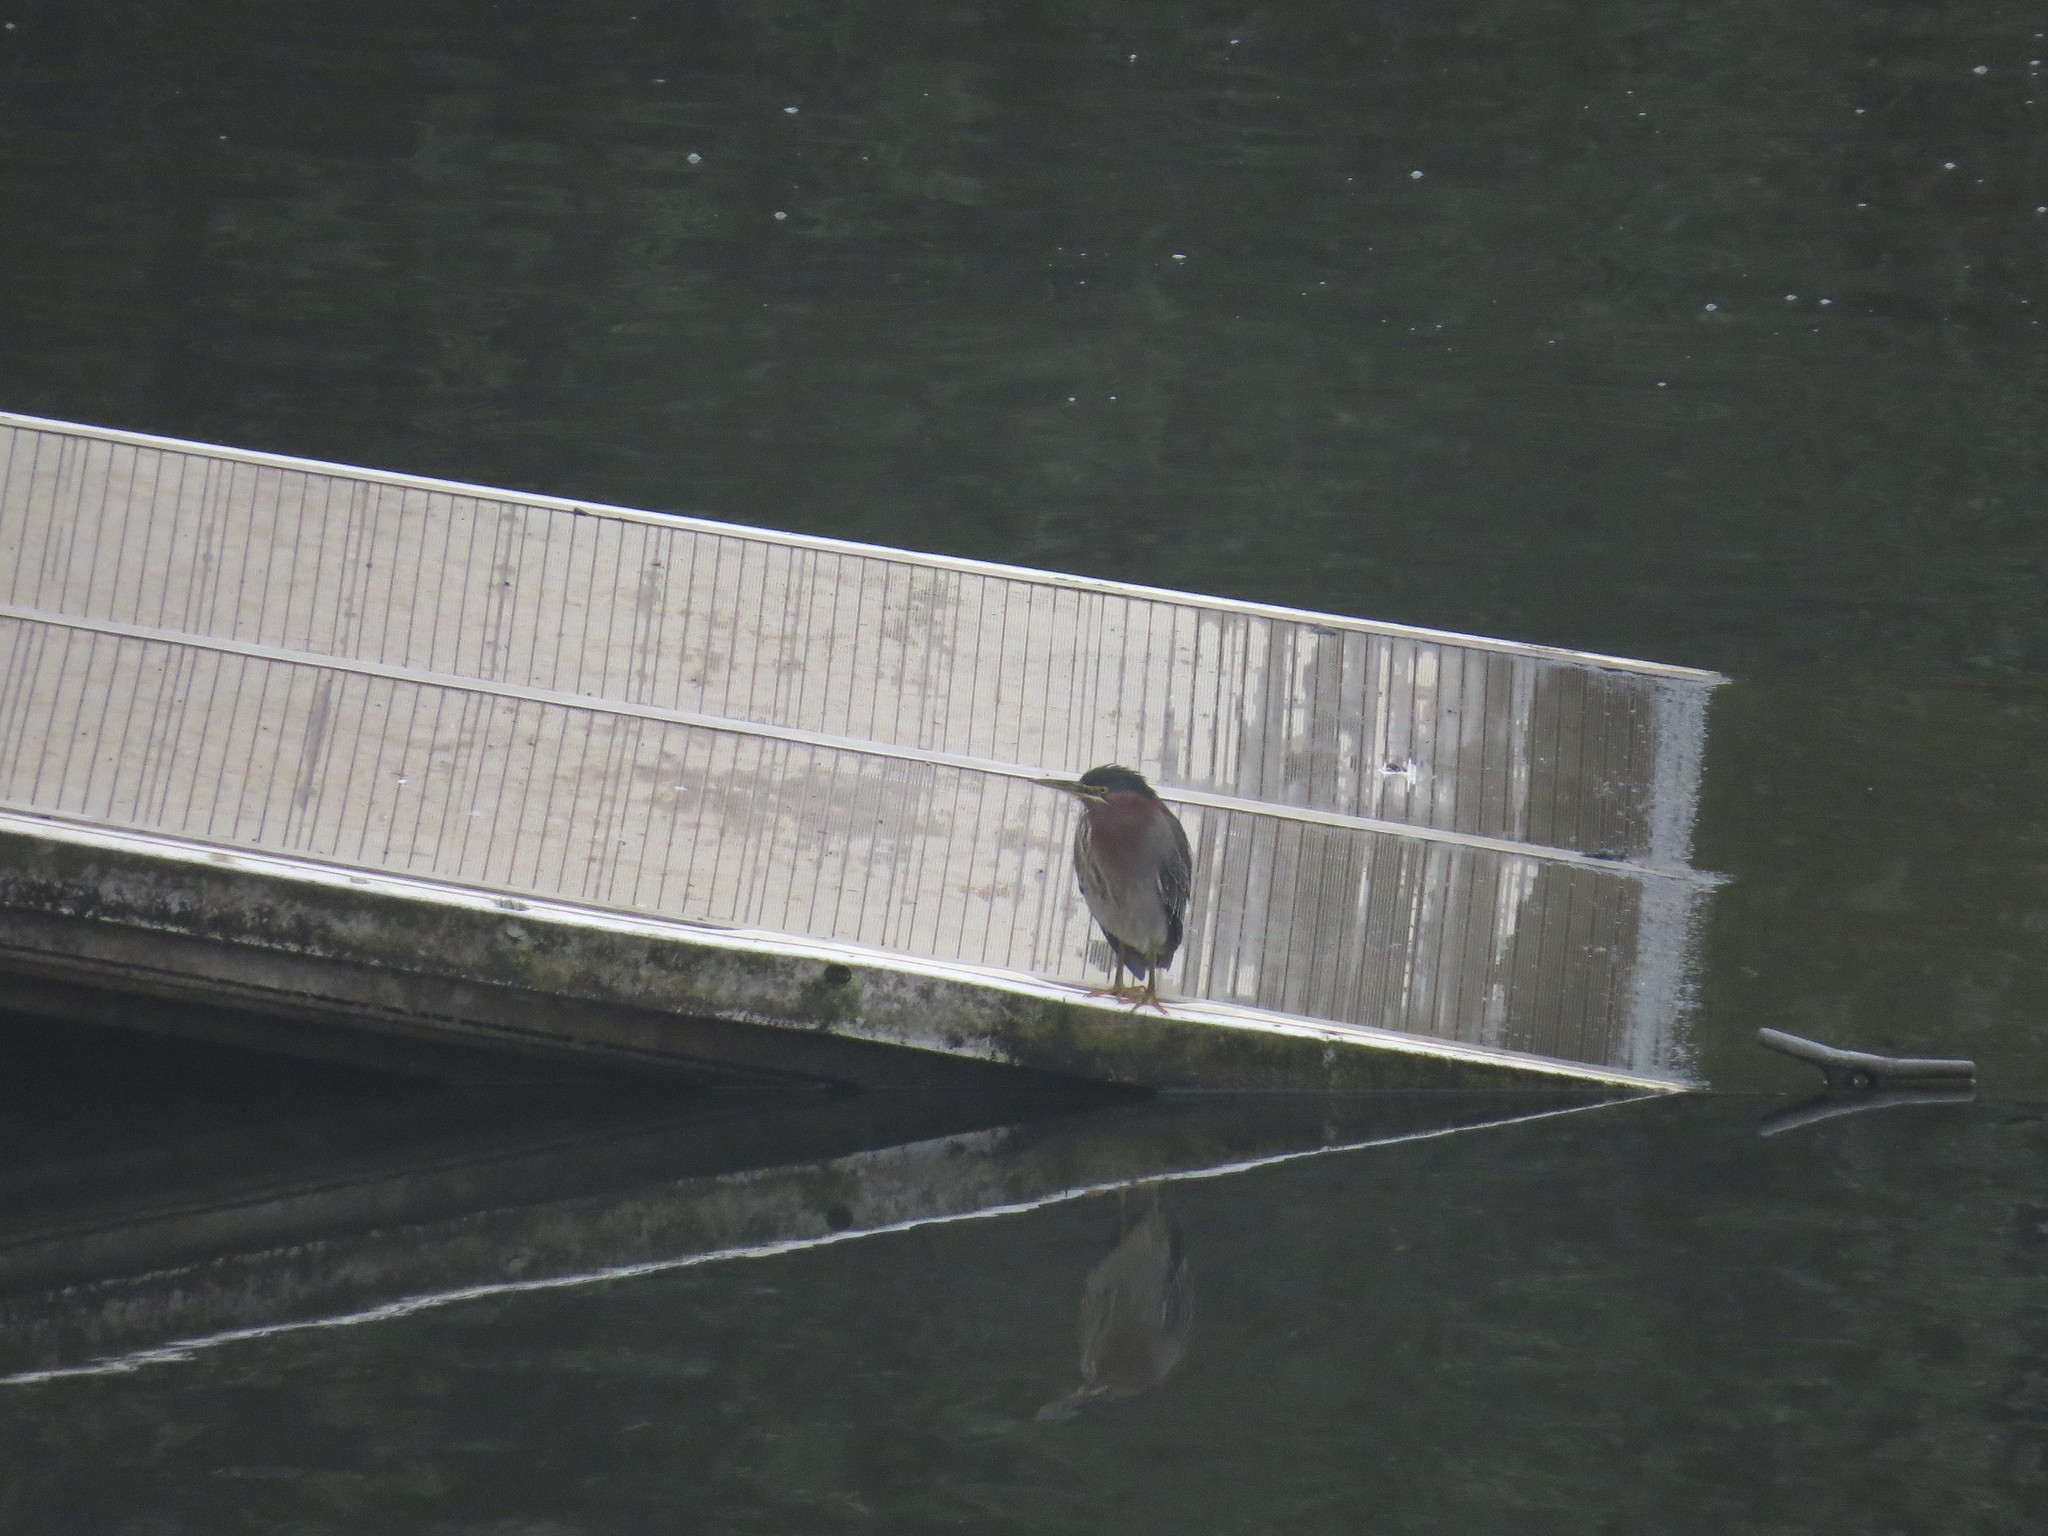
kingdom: Animalia
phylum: Chordata
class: Aves
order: Pelecaniformes
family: Ardeidae
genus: Butorides
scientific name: Butorides virescens
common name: Green heron
